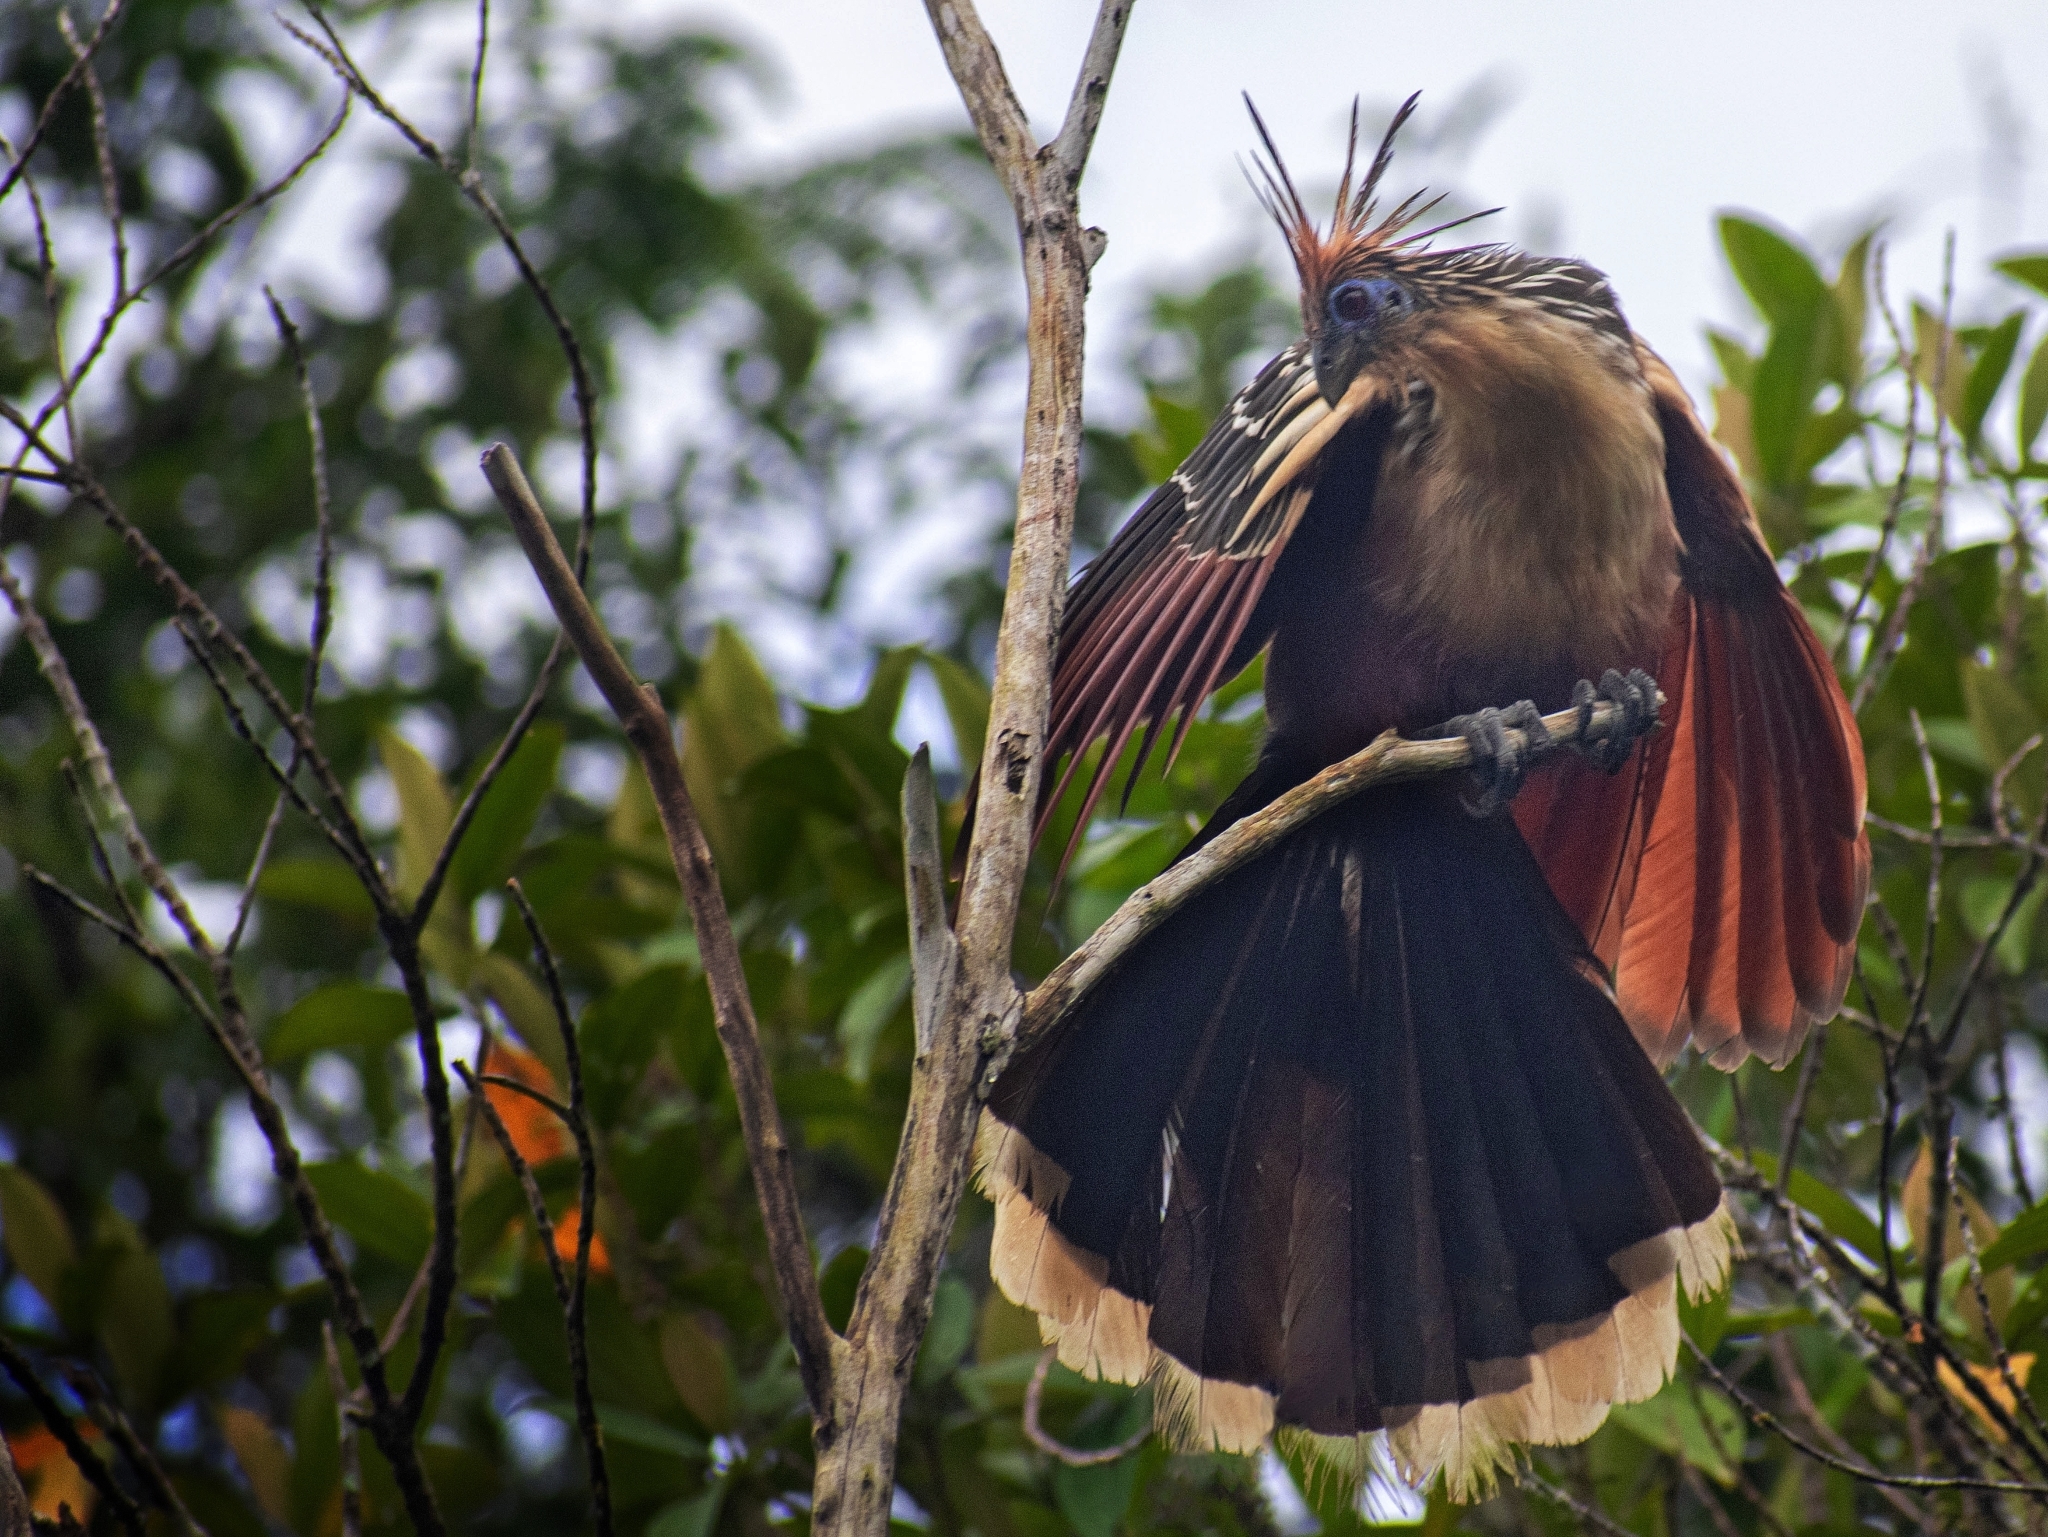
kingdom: Animalia
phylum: Chordata
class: Aves
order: Opisthocomiformes
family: Opisthocomidae
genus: Opisthocomus
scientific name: Opisthocomus hoazin
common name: Hoatzin
